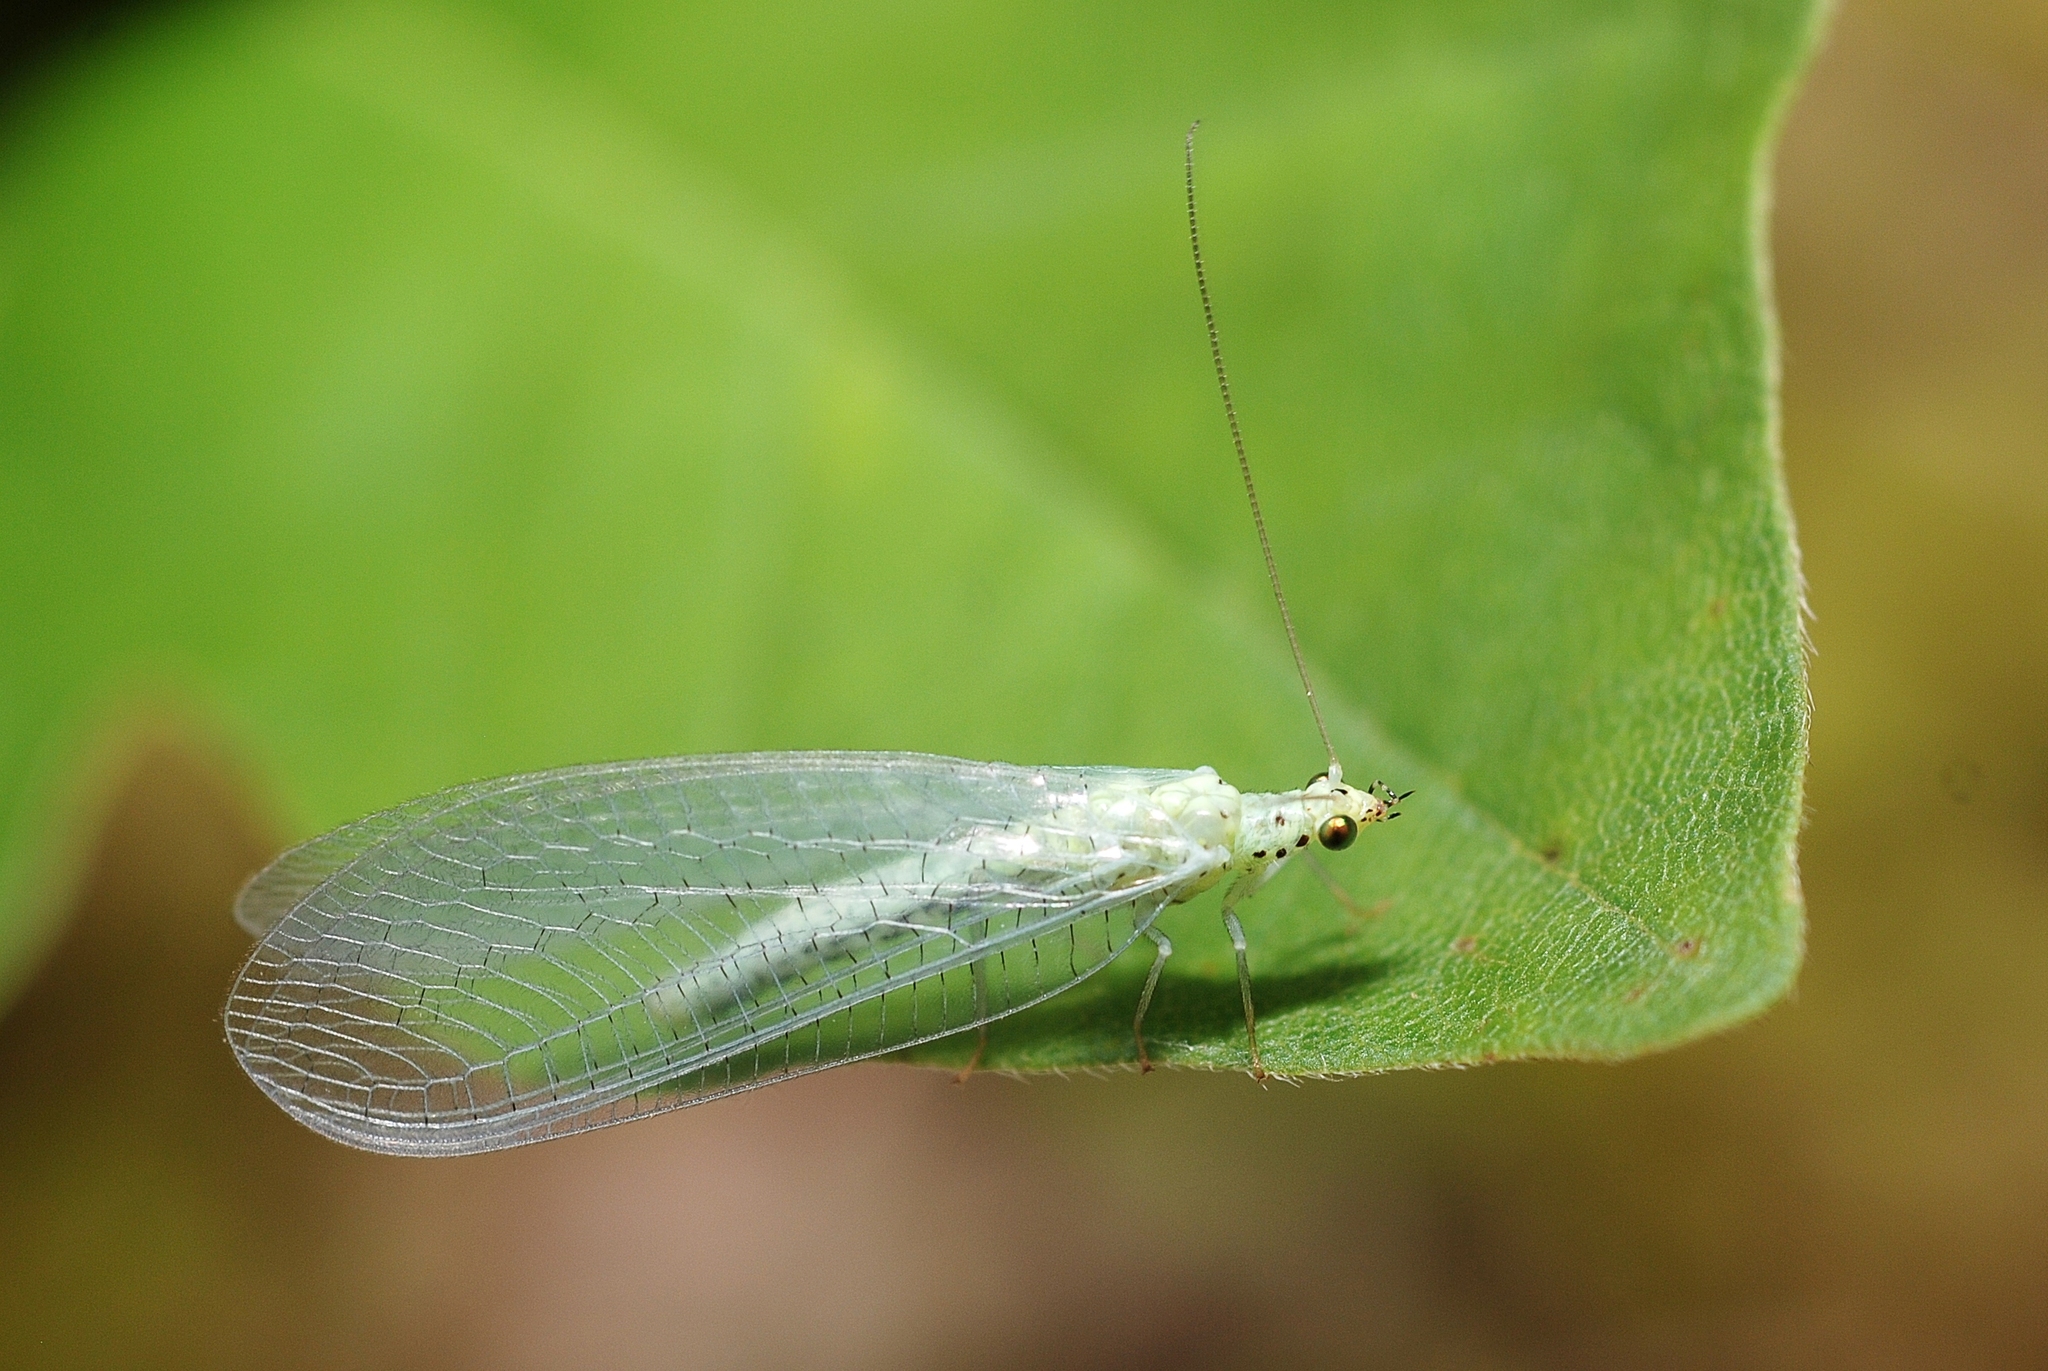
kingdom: Animalia
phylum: Arthropoda
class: Insecta
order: Neuroptera
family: Chrysopidae
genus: Pseudomallada
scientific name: Pseudomallada ventralis
